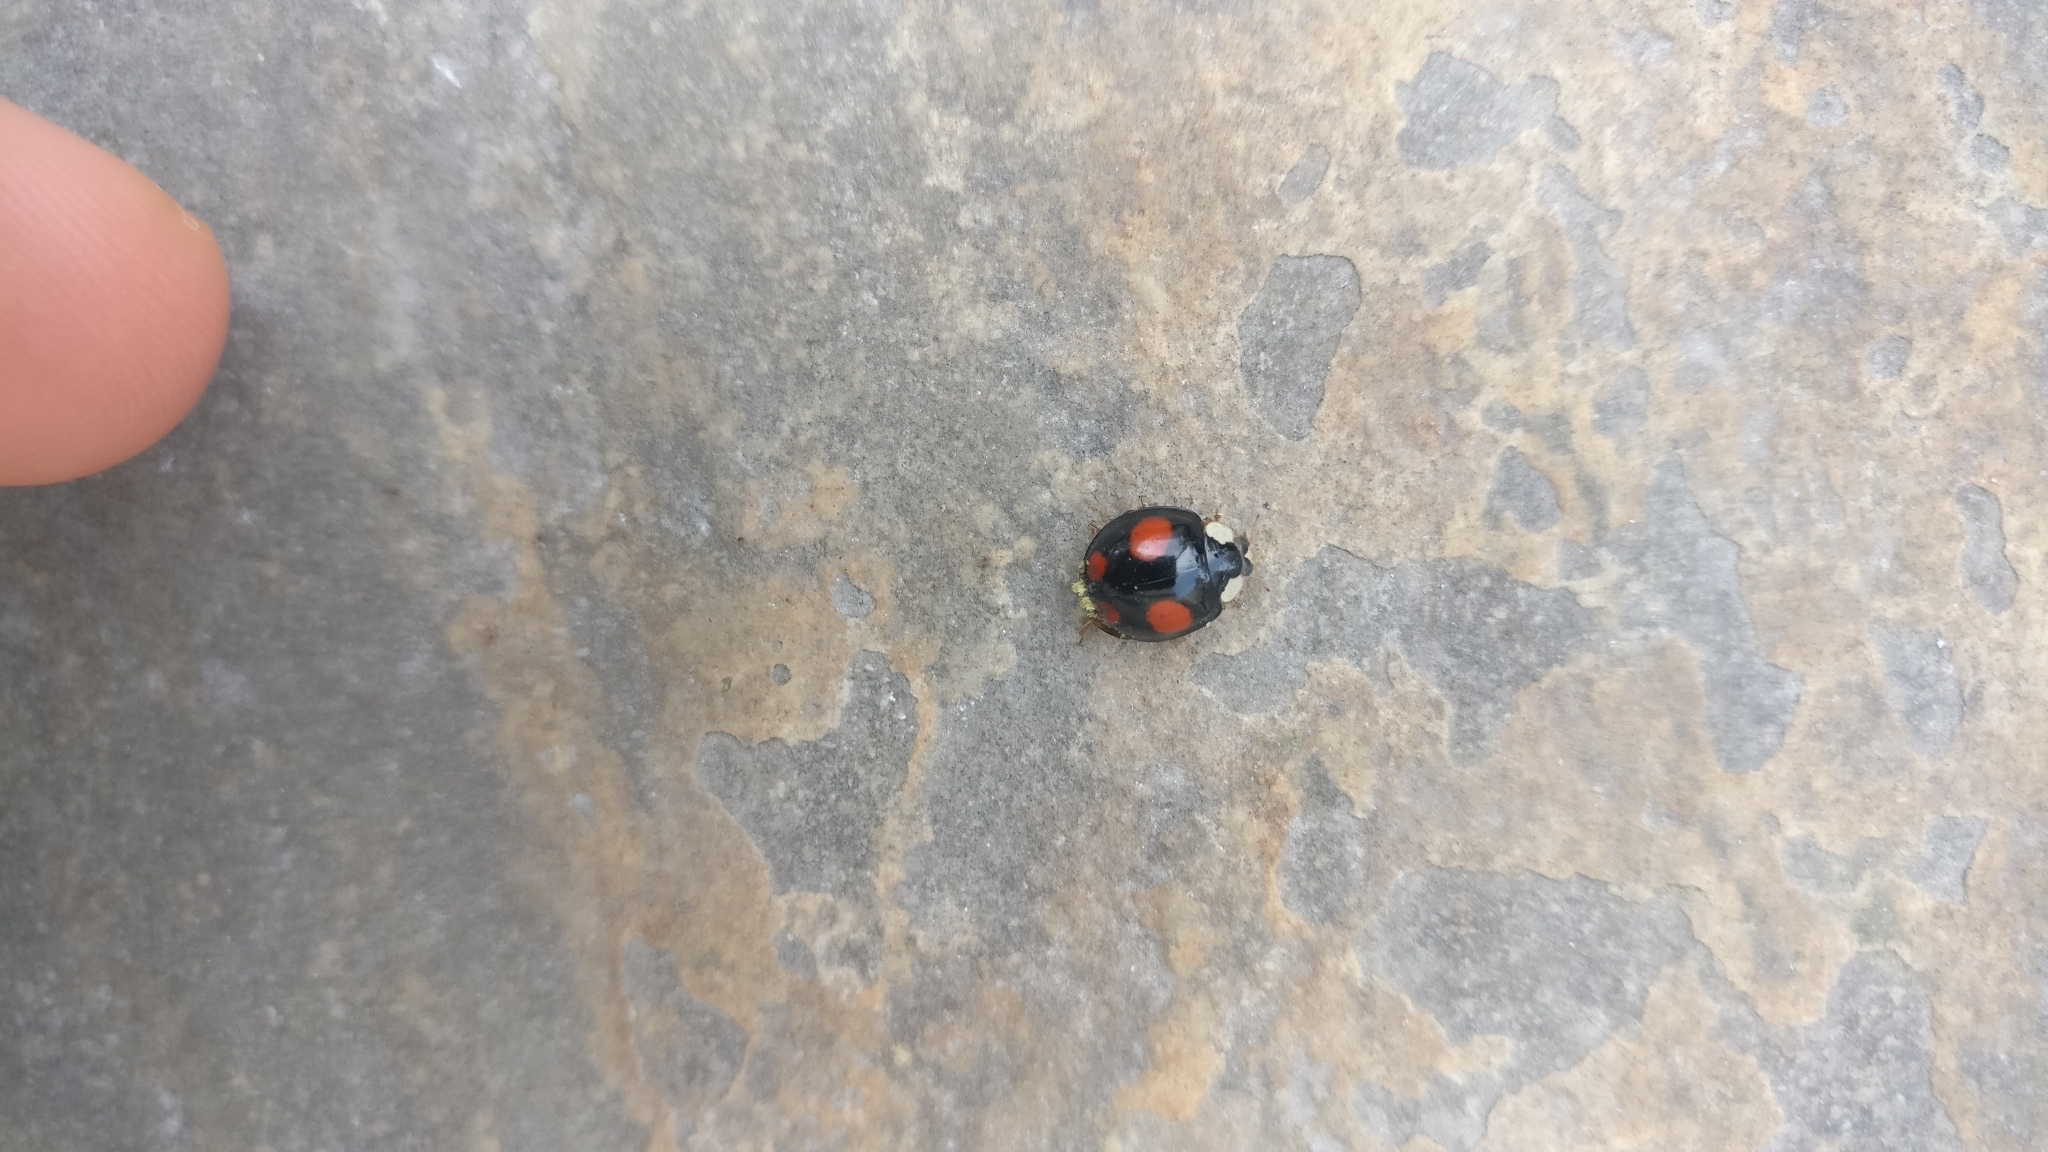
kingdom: Animalia
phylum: Arthropoda
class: Insecta
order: Coleoptera
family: Coccinellidae
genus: Harmonia
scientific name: Harmonia axyridis
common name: Harlequin ladybird
